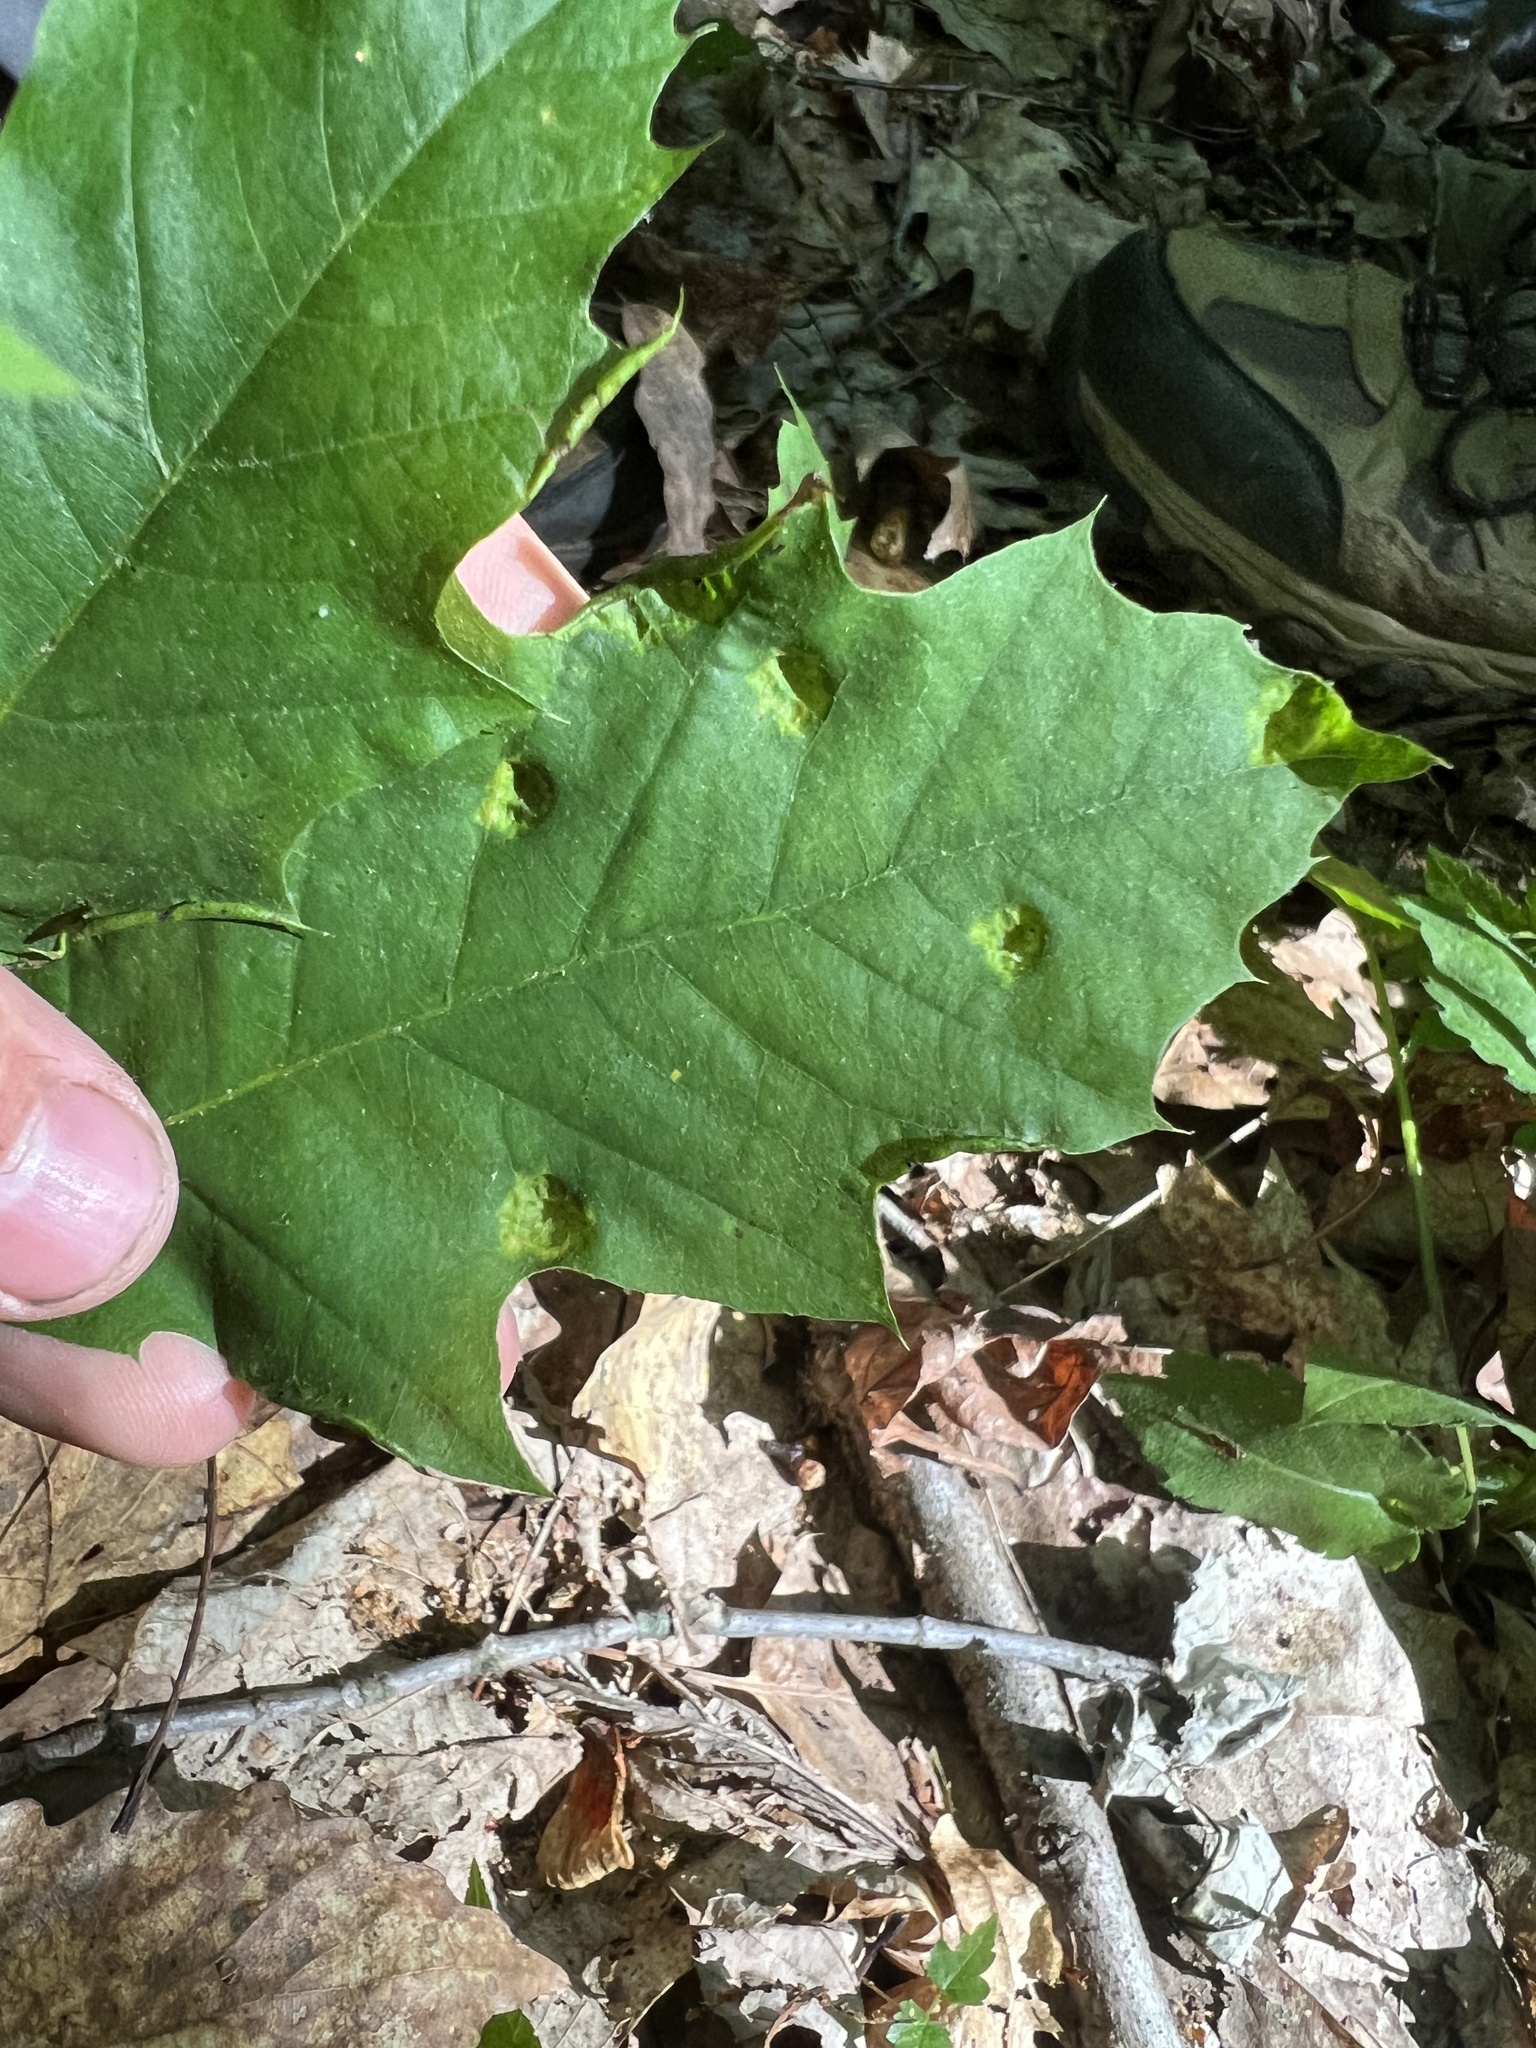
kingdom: Plantae
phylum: Tracheophyta
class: Magnoliopsida
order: Fagales
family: Fagaceae
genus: Quercus
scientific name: Quercus rubra
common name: Red oak
